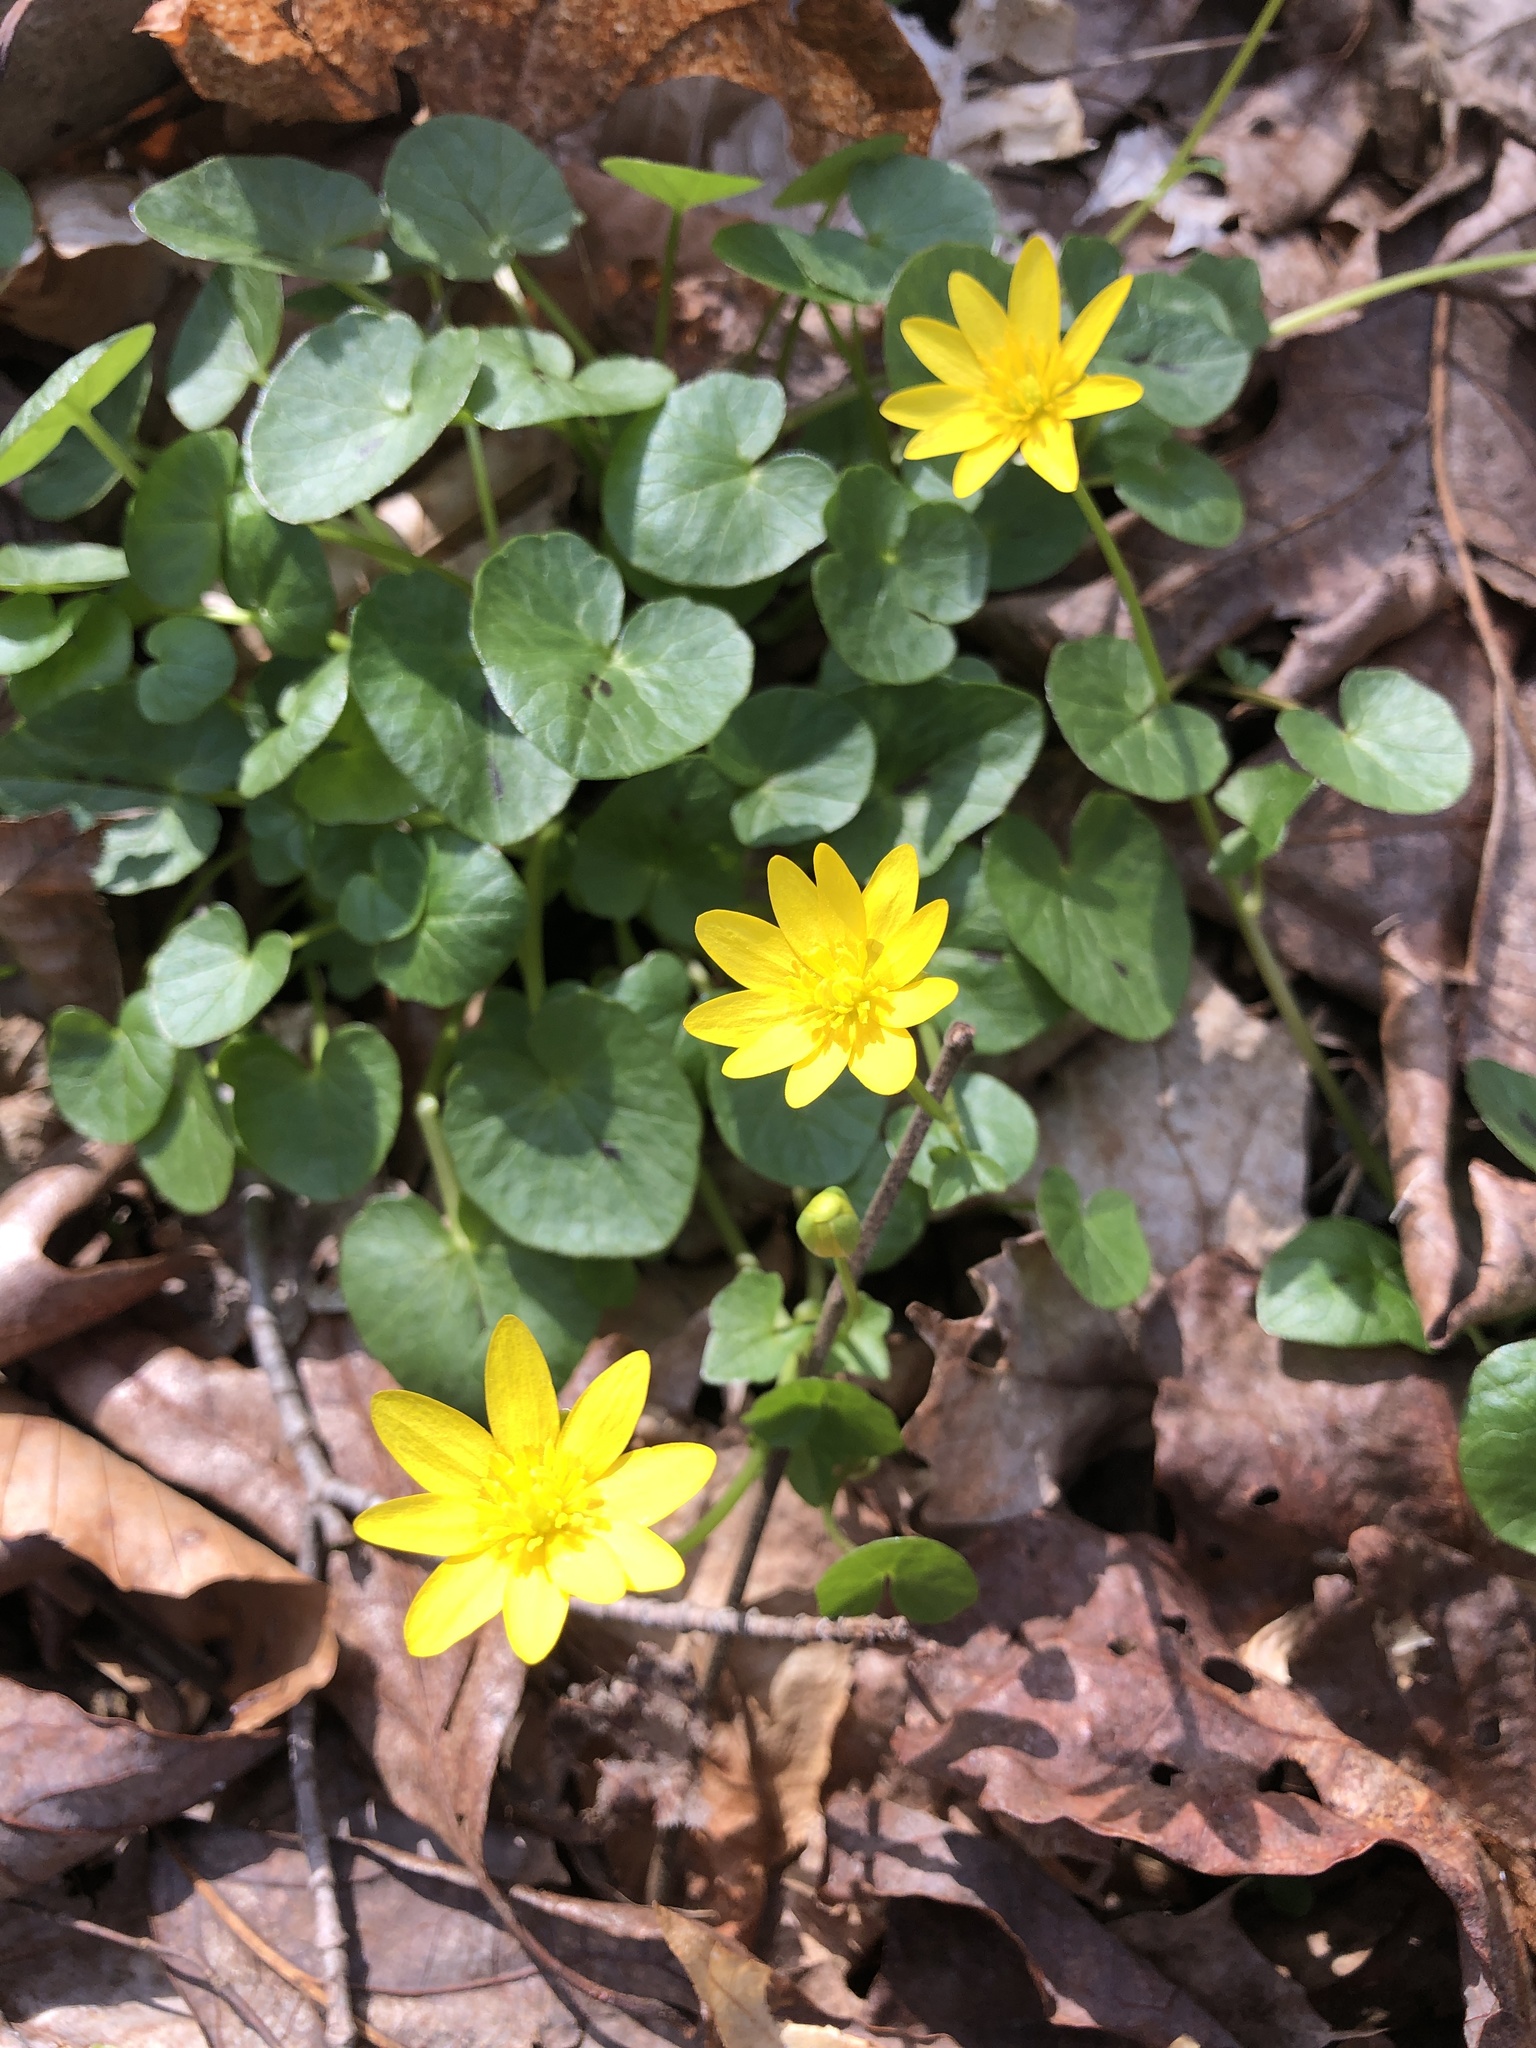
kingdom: Plantae
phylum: Tracheophyta
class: Magnoliopsida
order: Ranunculales
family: Ranunculaceae
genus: Ficaria
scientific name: Ficaria verna
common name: Lesser celandine
